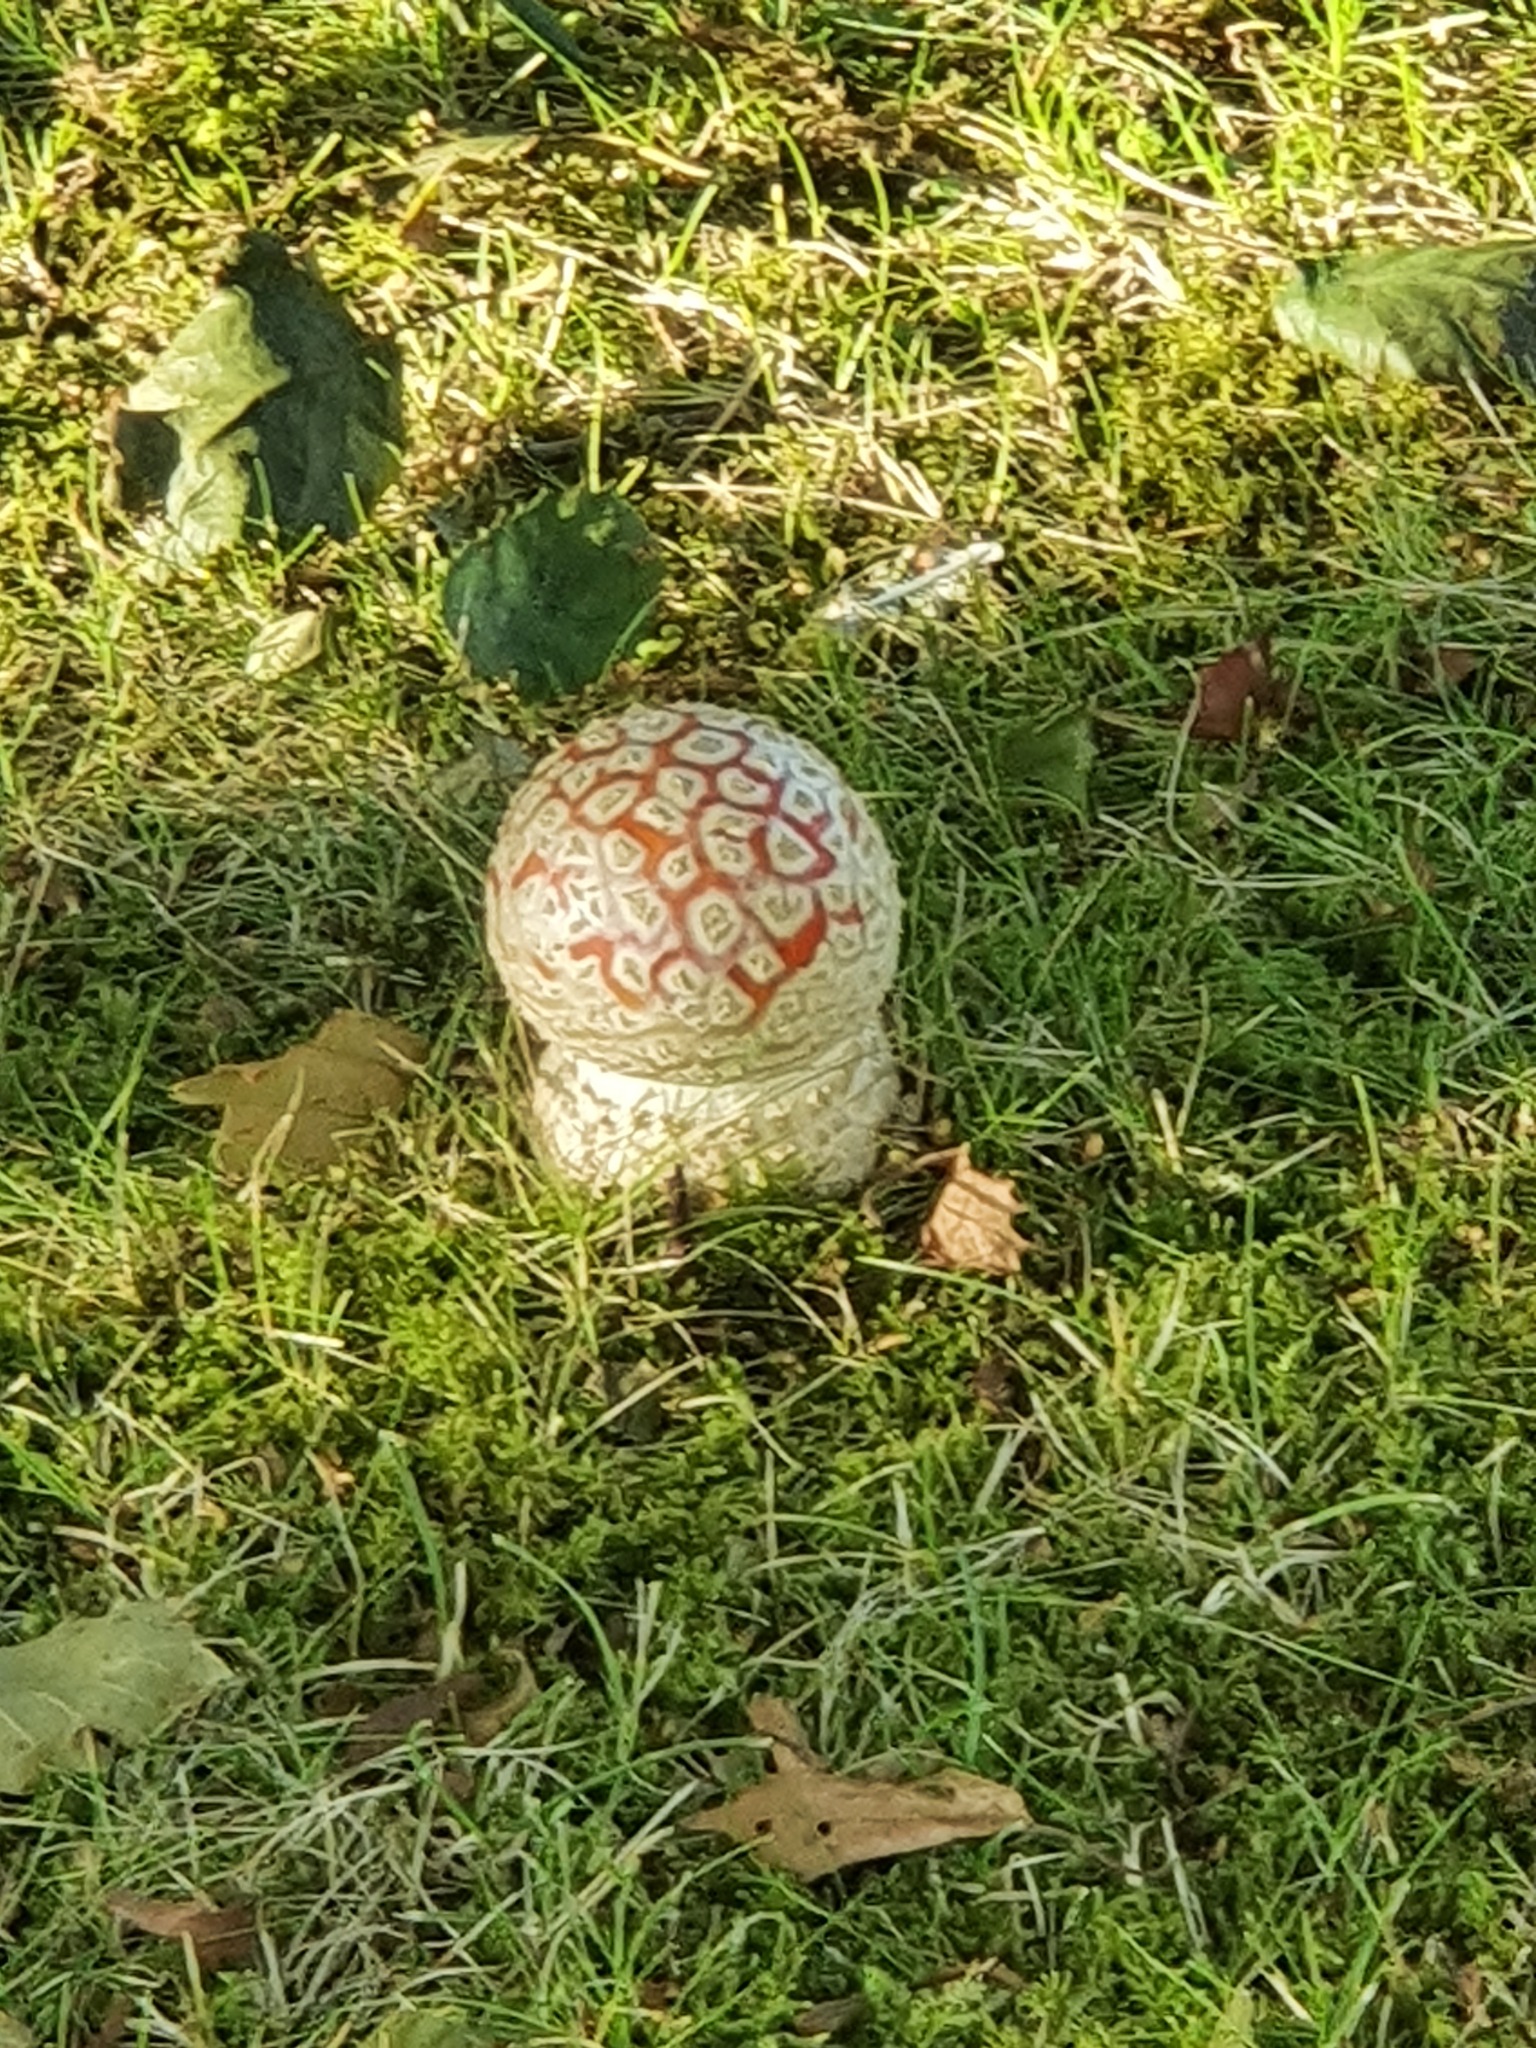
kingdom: Fungi
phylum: Basidiomycota
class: Agaricomycetes
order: Agaricales
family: Amanitaceae
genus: Amanita
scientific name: Amanita muscaria
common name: Fly agaric
